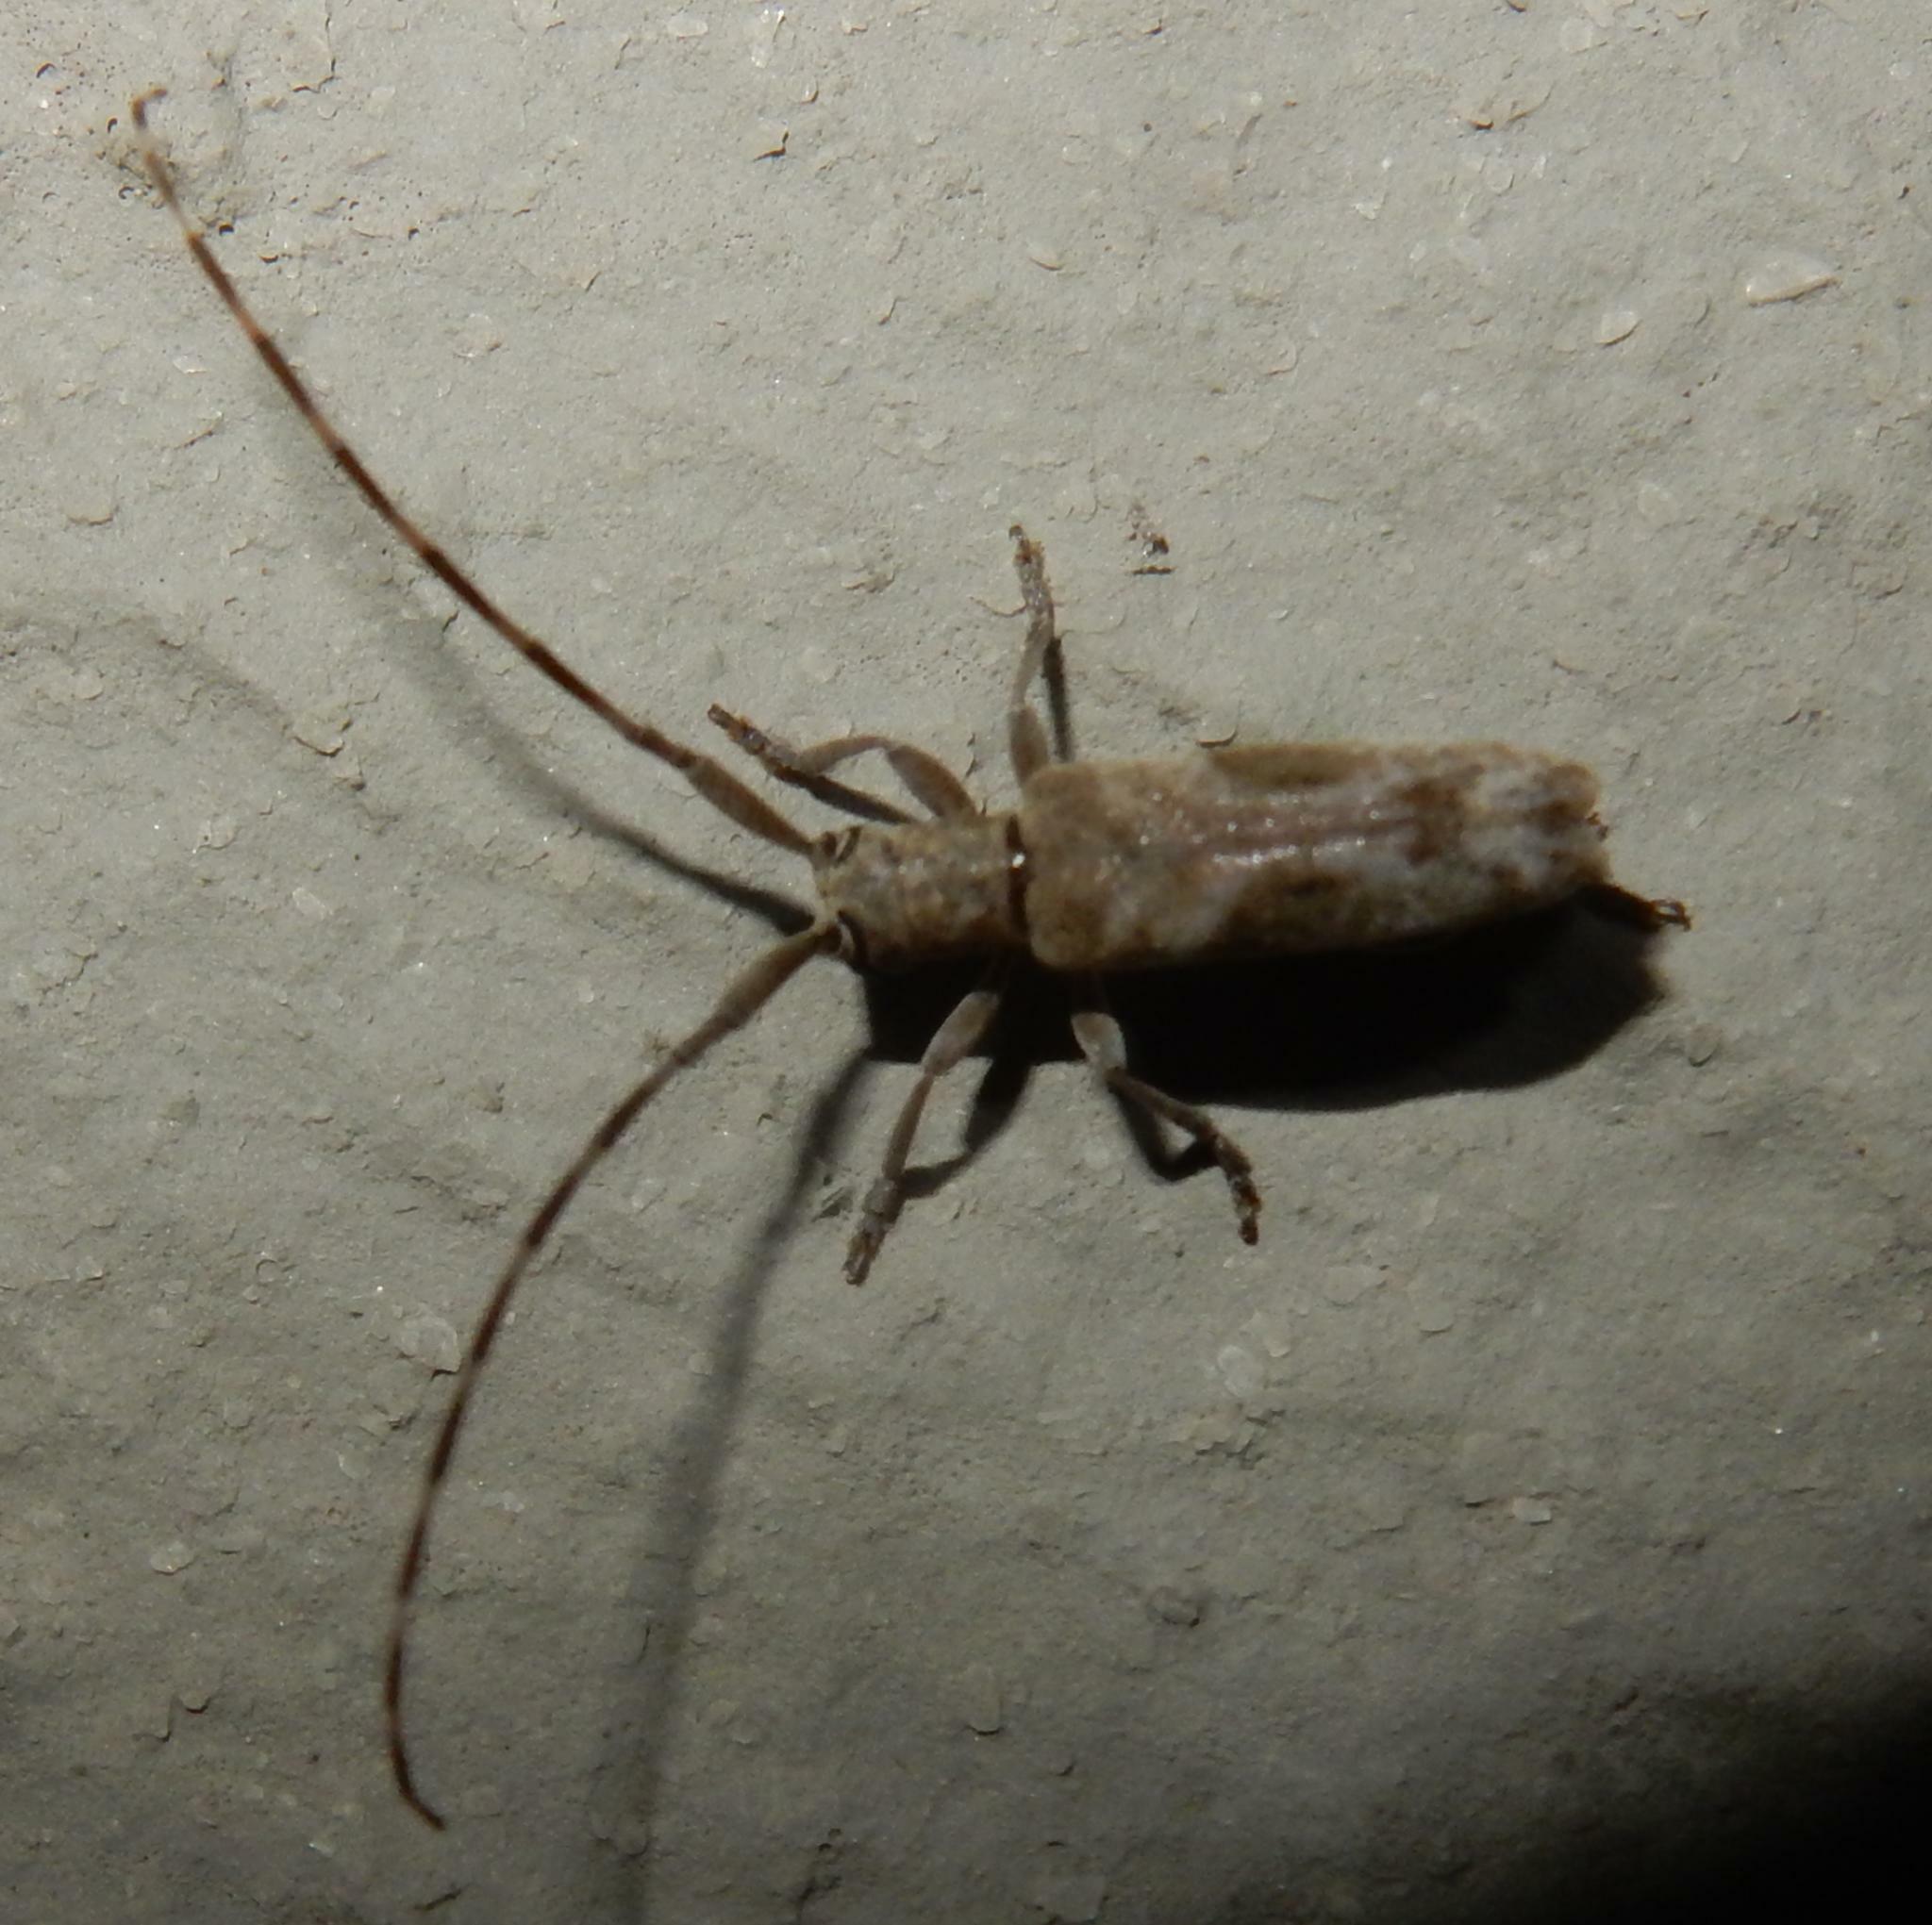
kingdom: Animalia
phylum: Arthropoda
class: Insecta
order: Coleoptera
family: Cerambycidae
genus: Eunidia
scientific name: Eunidia nebulosa
